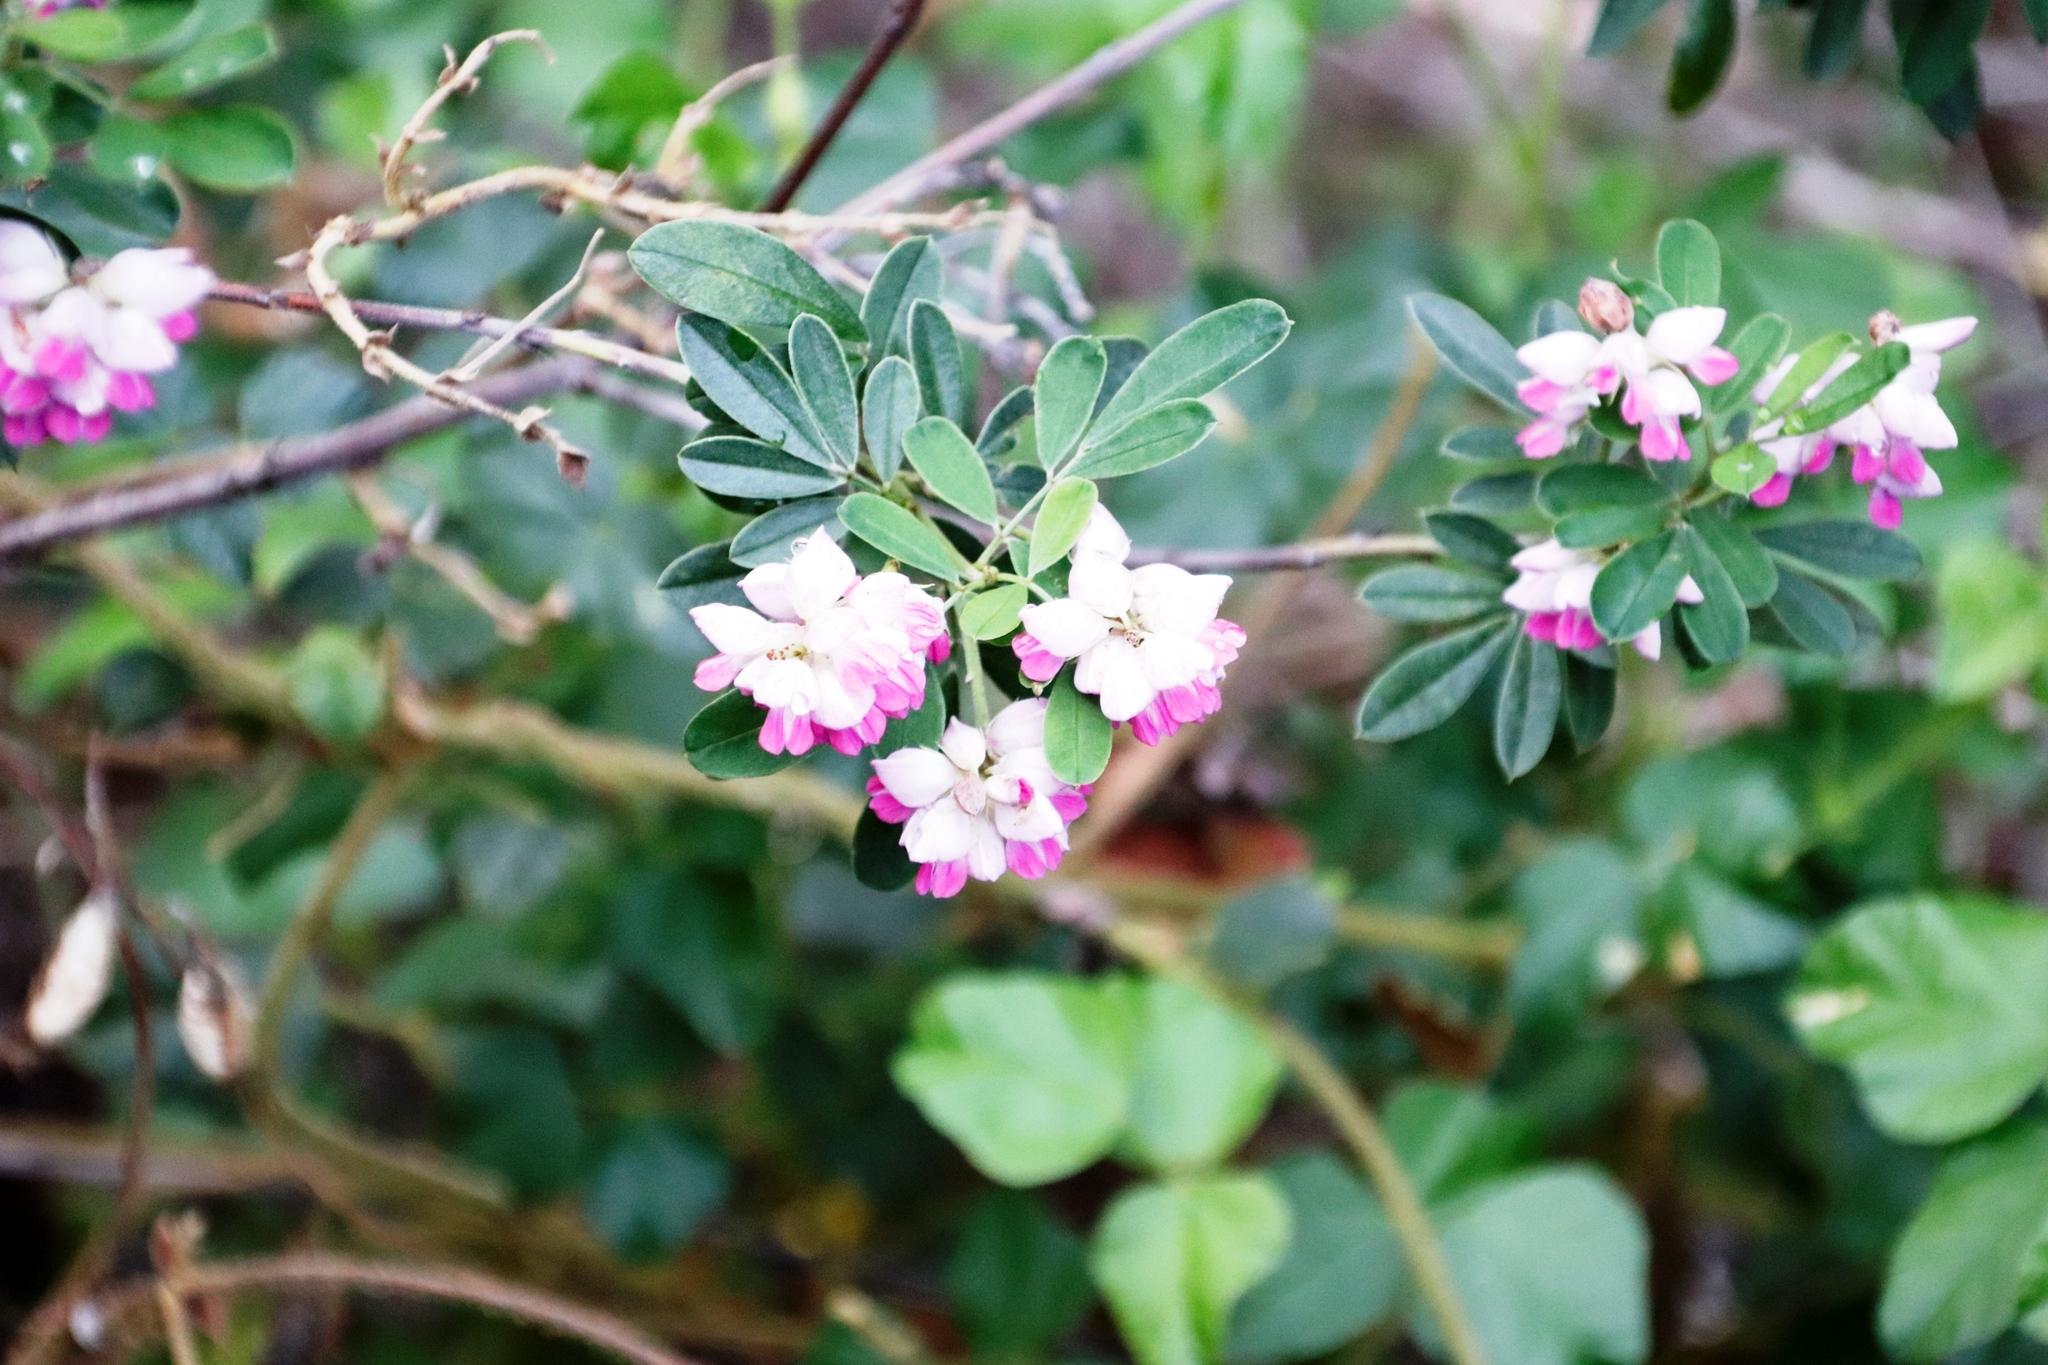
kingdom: Plantae
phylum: Tracheophyta
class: Magnoliopsida
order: Fabales
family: Fabaceae
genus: Indigofera
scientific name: Indigofera cytisoides
